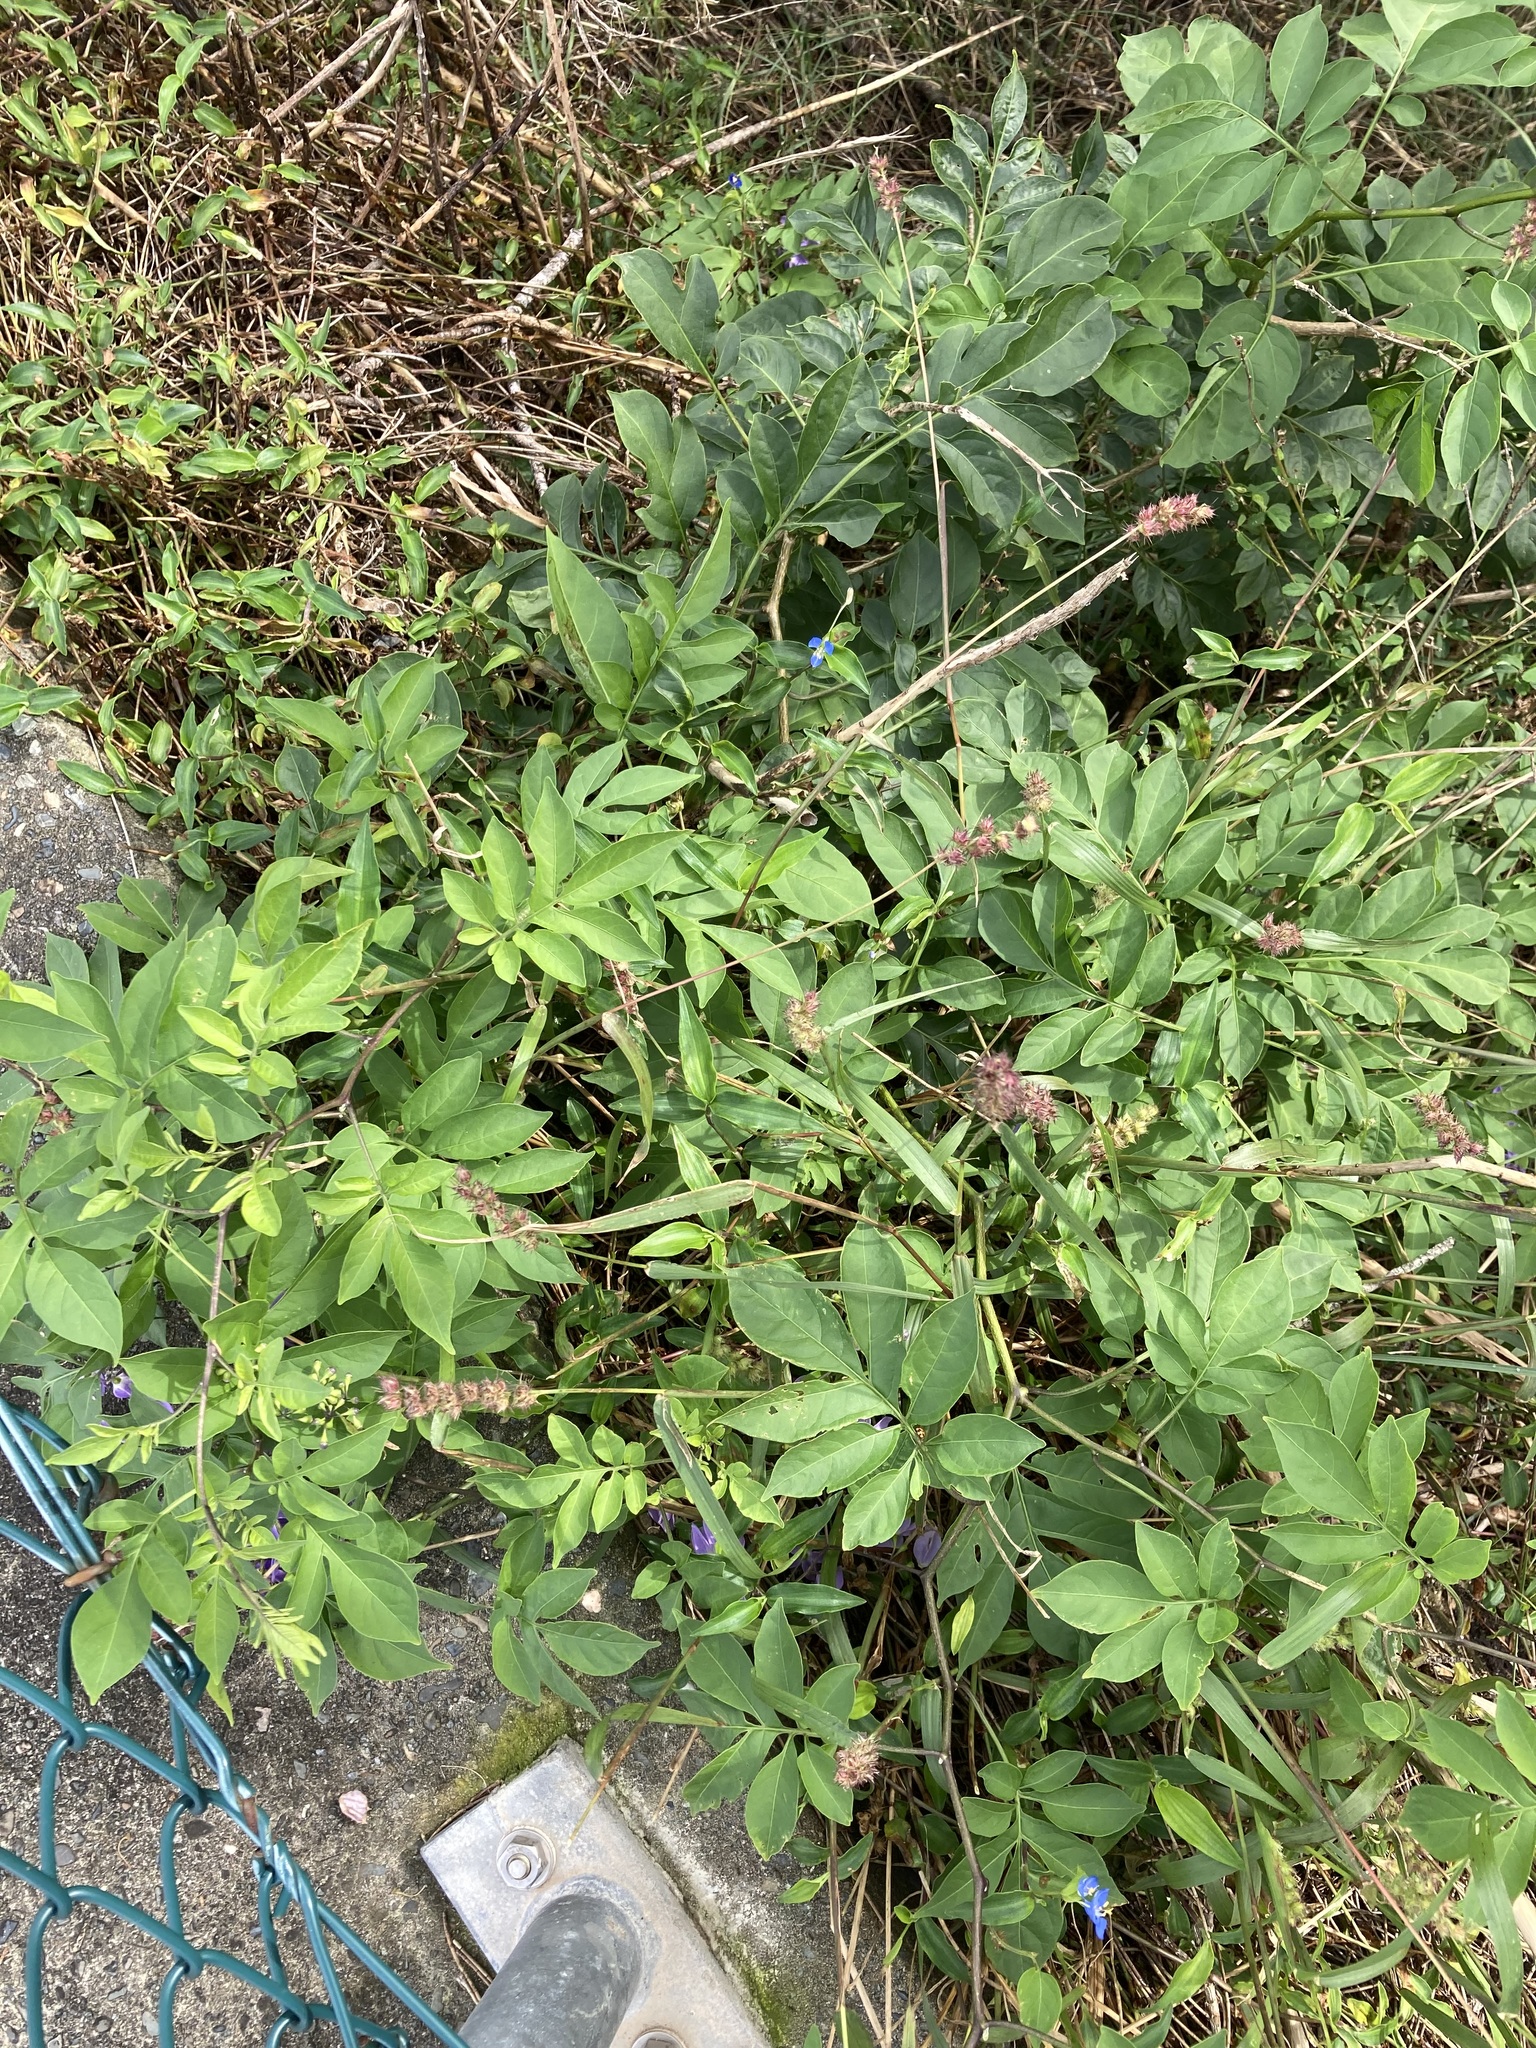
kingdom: Plantae
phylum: Tracheophyta
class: Liliopsida
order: Poales
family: Poaceae
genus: Cenchrus
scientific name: Cenchrus echinatus
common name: Southern sandbur
